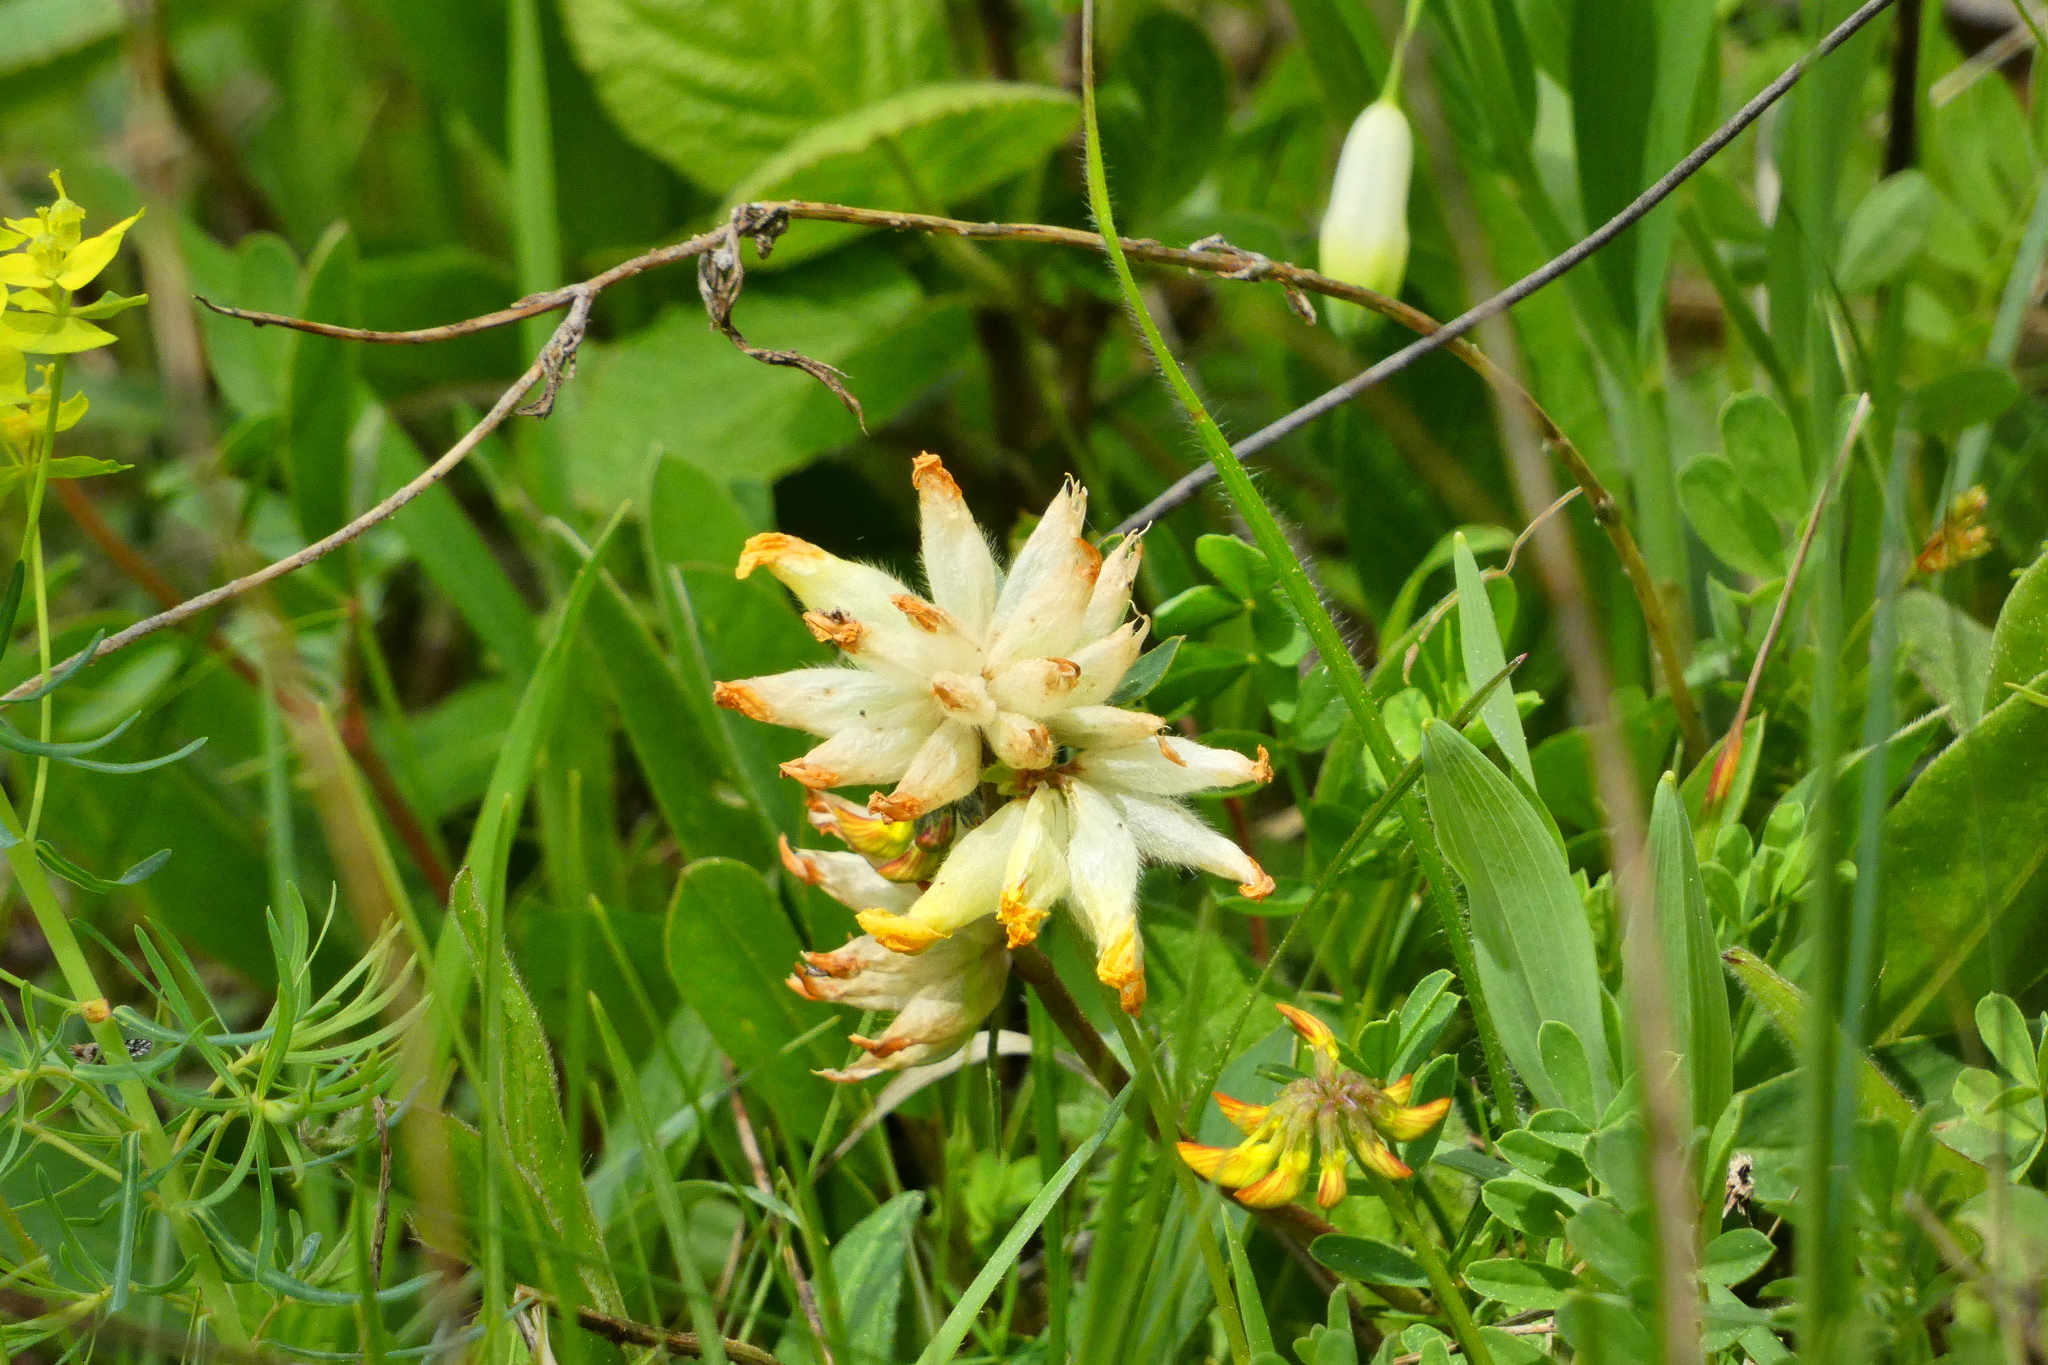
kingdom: Plantae
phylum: Tracheophyta
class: Magnoliopsida
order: Fabales
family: Fabaceae
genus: Anthyllis
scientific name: Anthyllis vulneraria
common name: Kidney vetch
